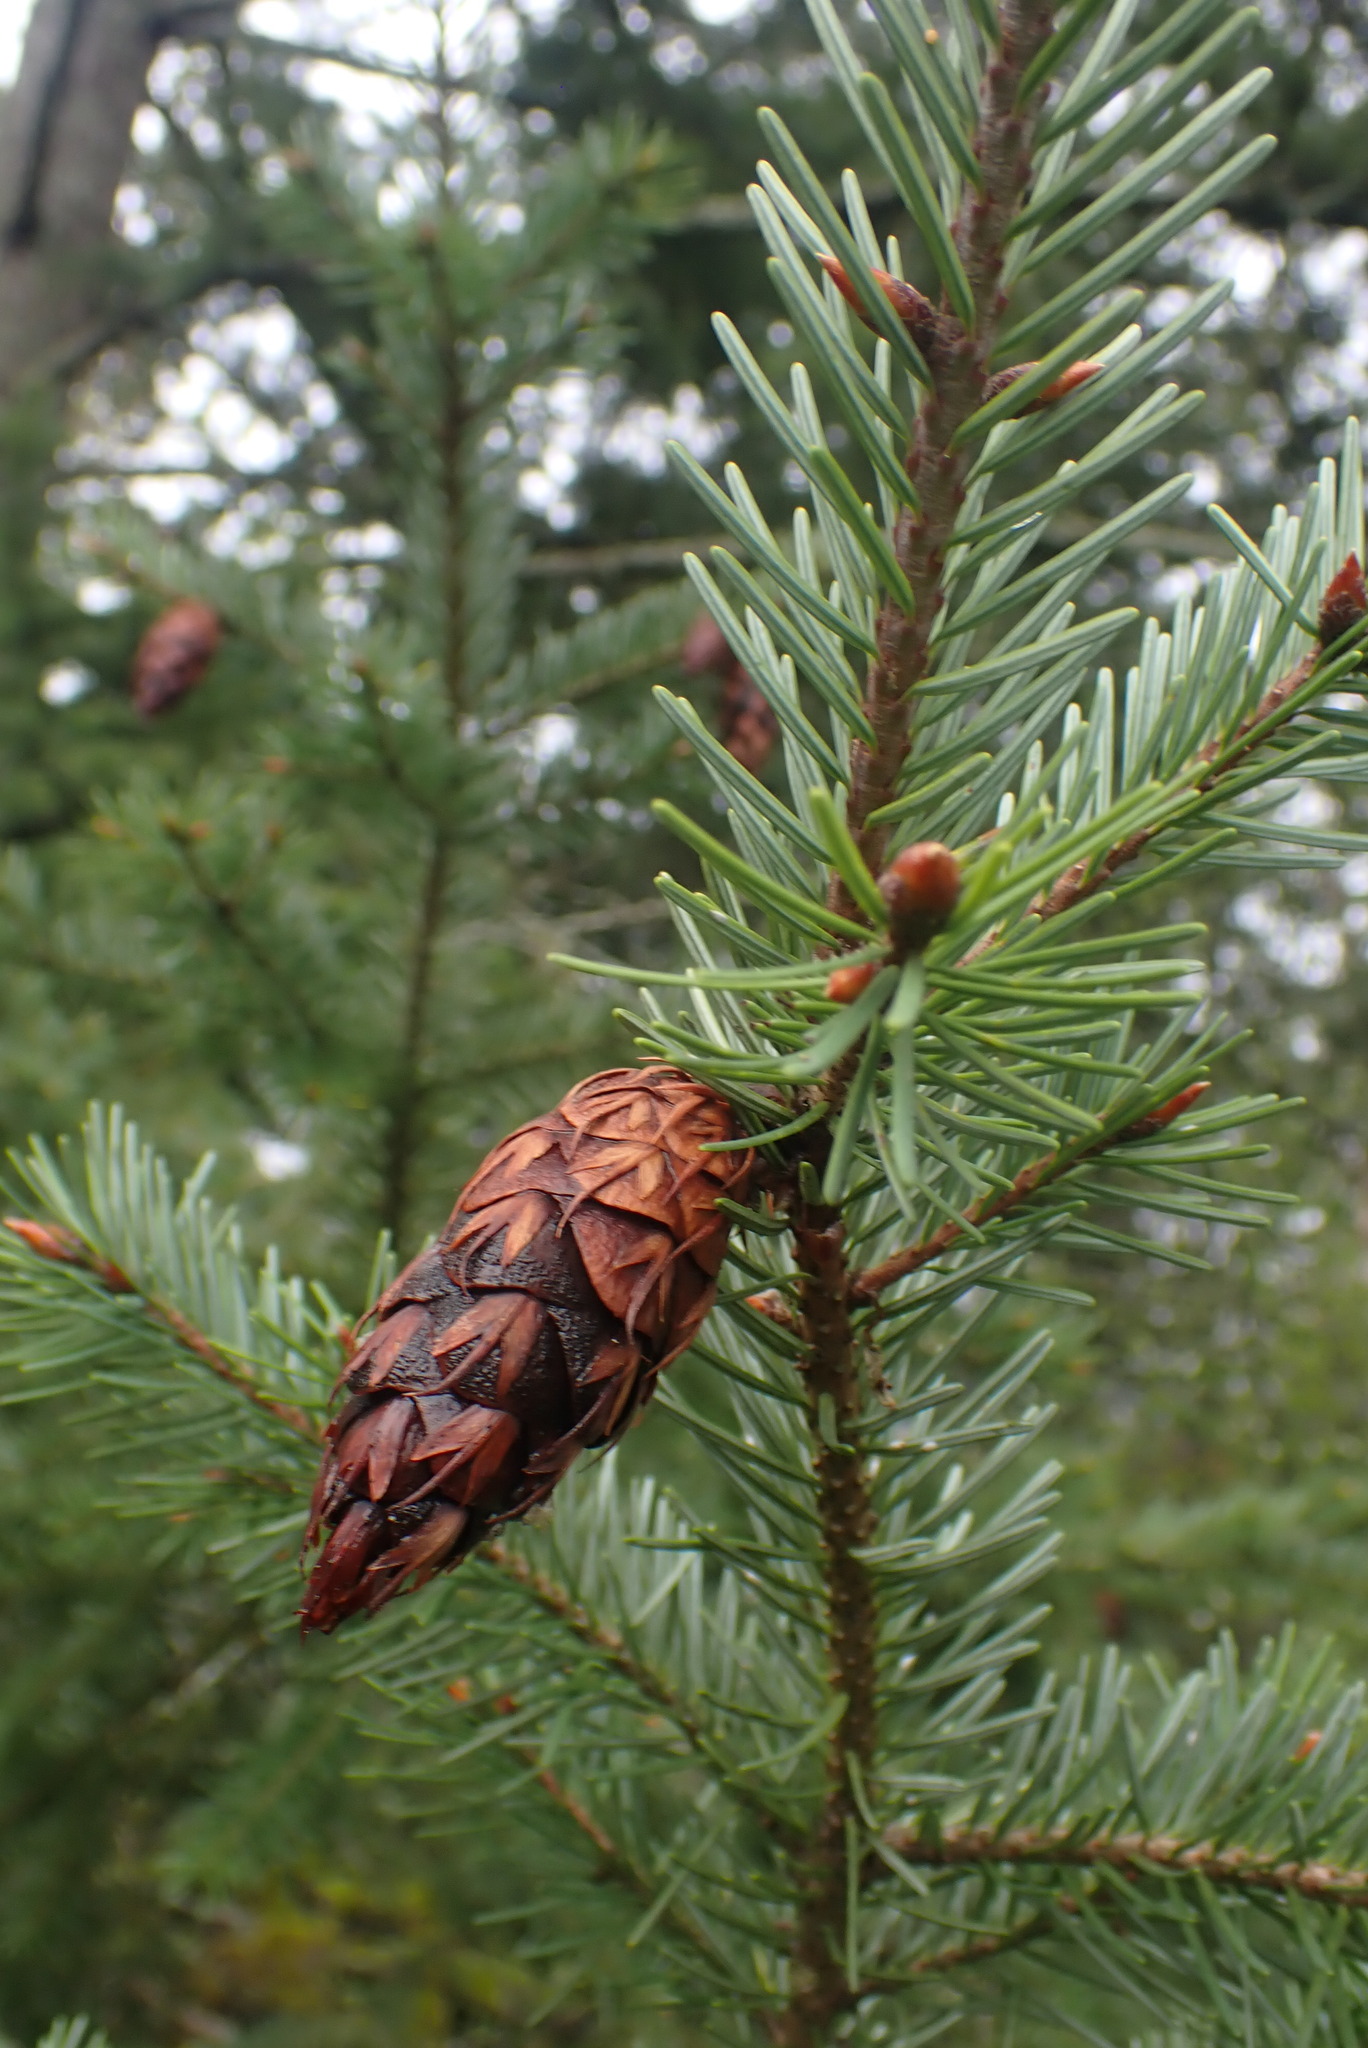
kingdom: Plantae
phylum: Tracheophyta
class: Pinopsida
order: Pinales
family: Pinaceae
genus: Pseudotsuga
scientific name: Pseudotsuga menziesii
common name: Douglas fir
